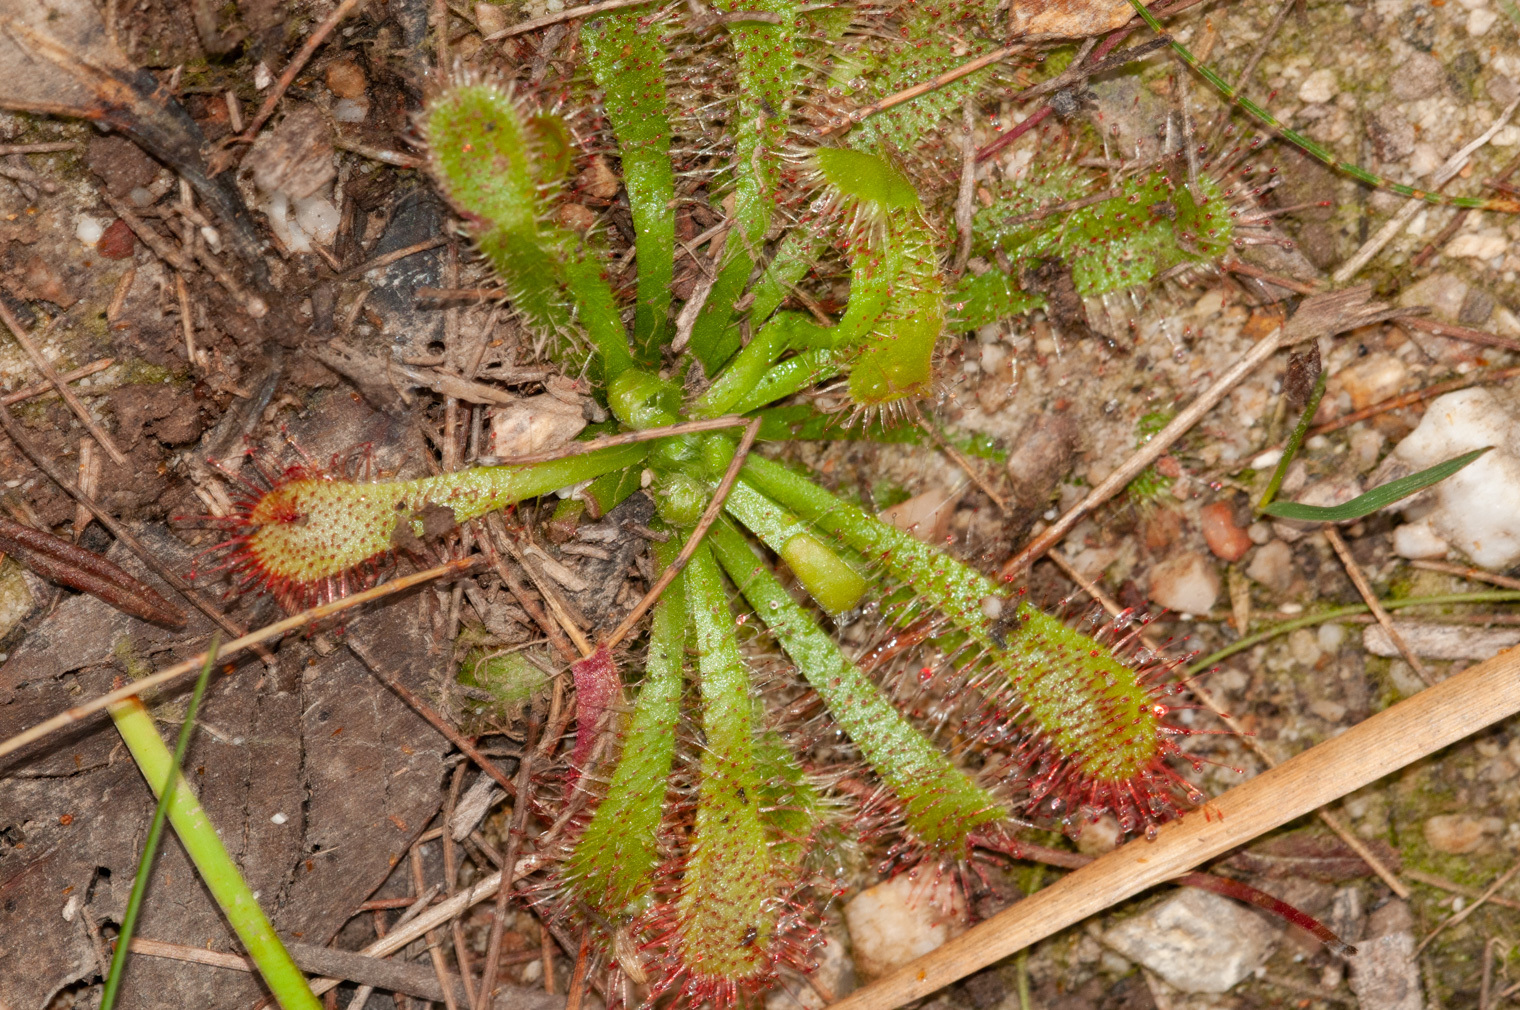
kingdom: Plantae
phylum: Tracheophyta
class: Magnoliopsida
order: Caryophyllales
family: Droseraceae
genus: Drosera
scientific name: Drosera spatulata
